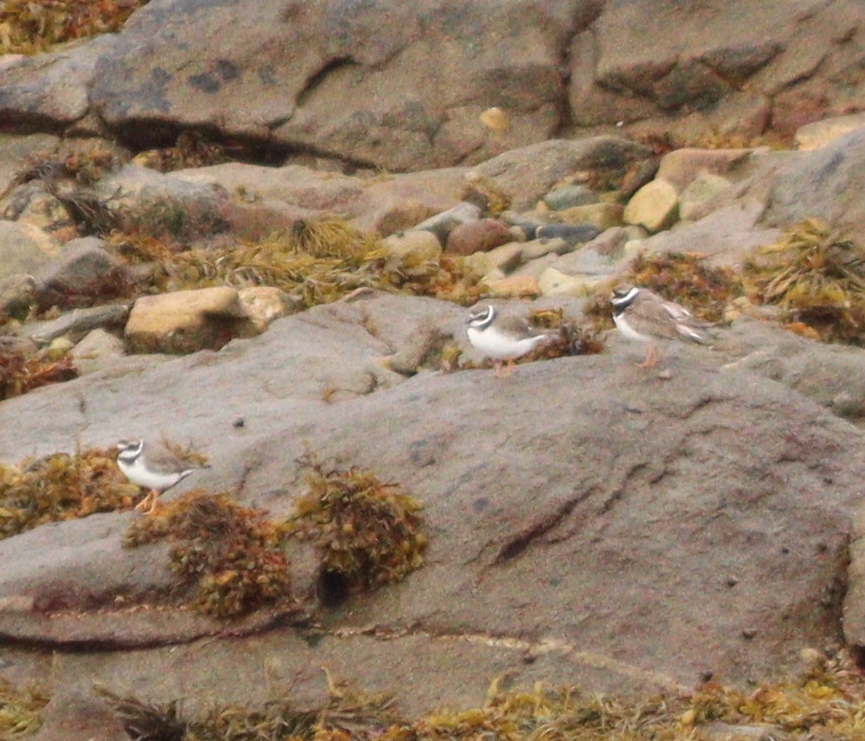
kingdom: Animalia
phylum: Chordata
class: Aves
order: Charadriiformes
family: Charadriidae
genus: Charadrius
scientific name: Charadrius hiaticula
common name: Common ringed plover
